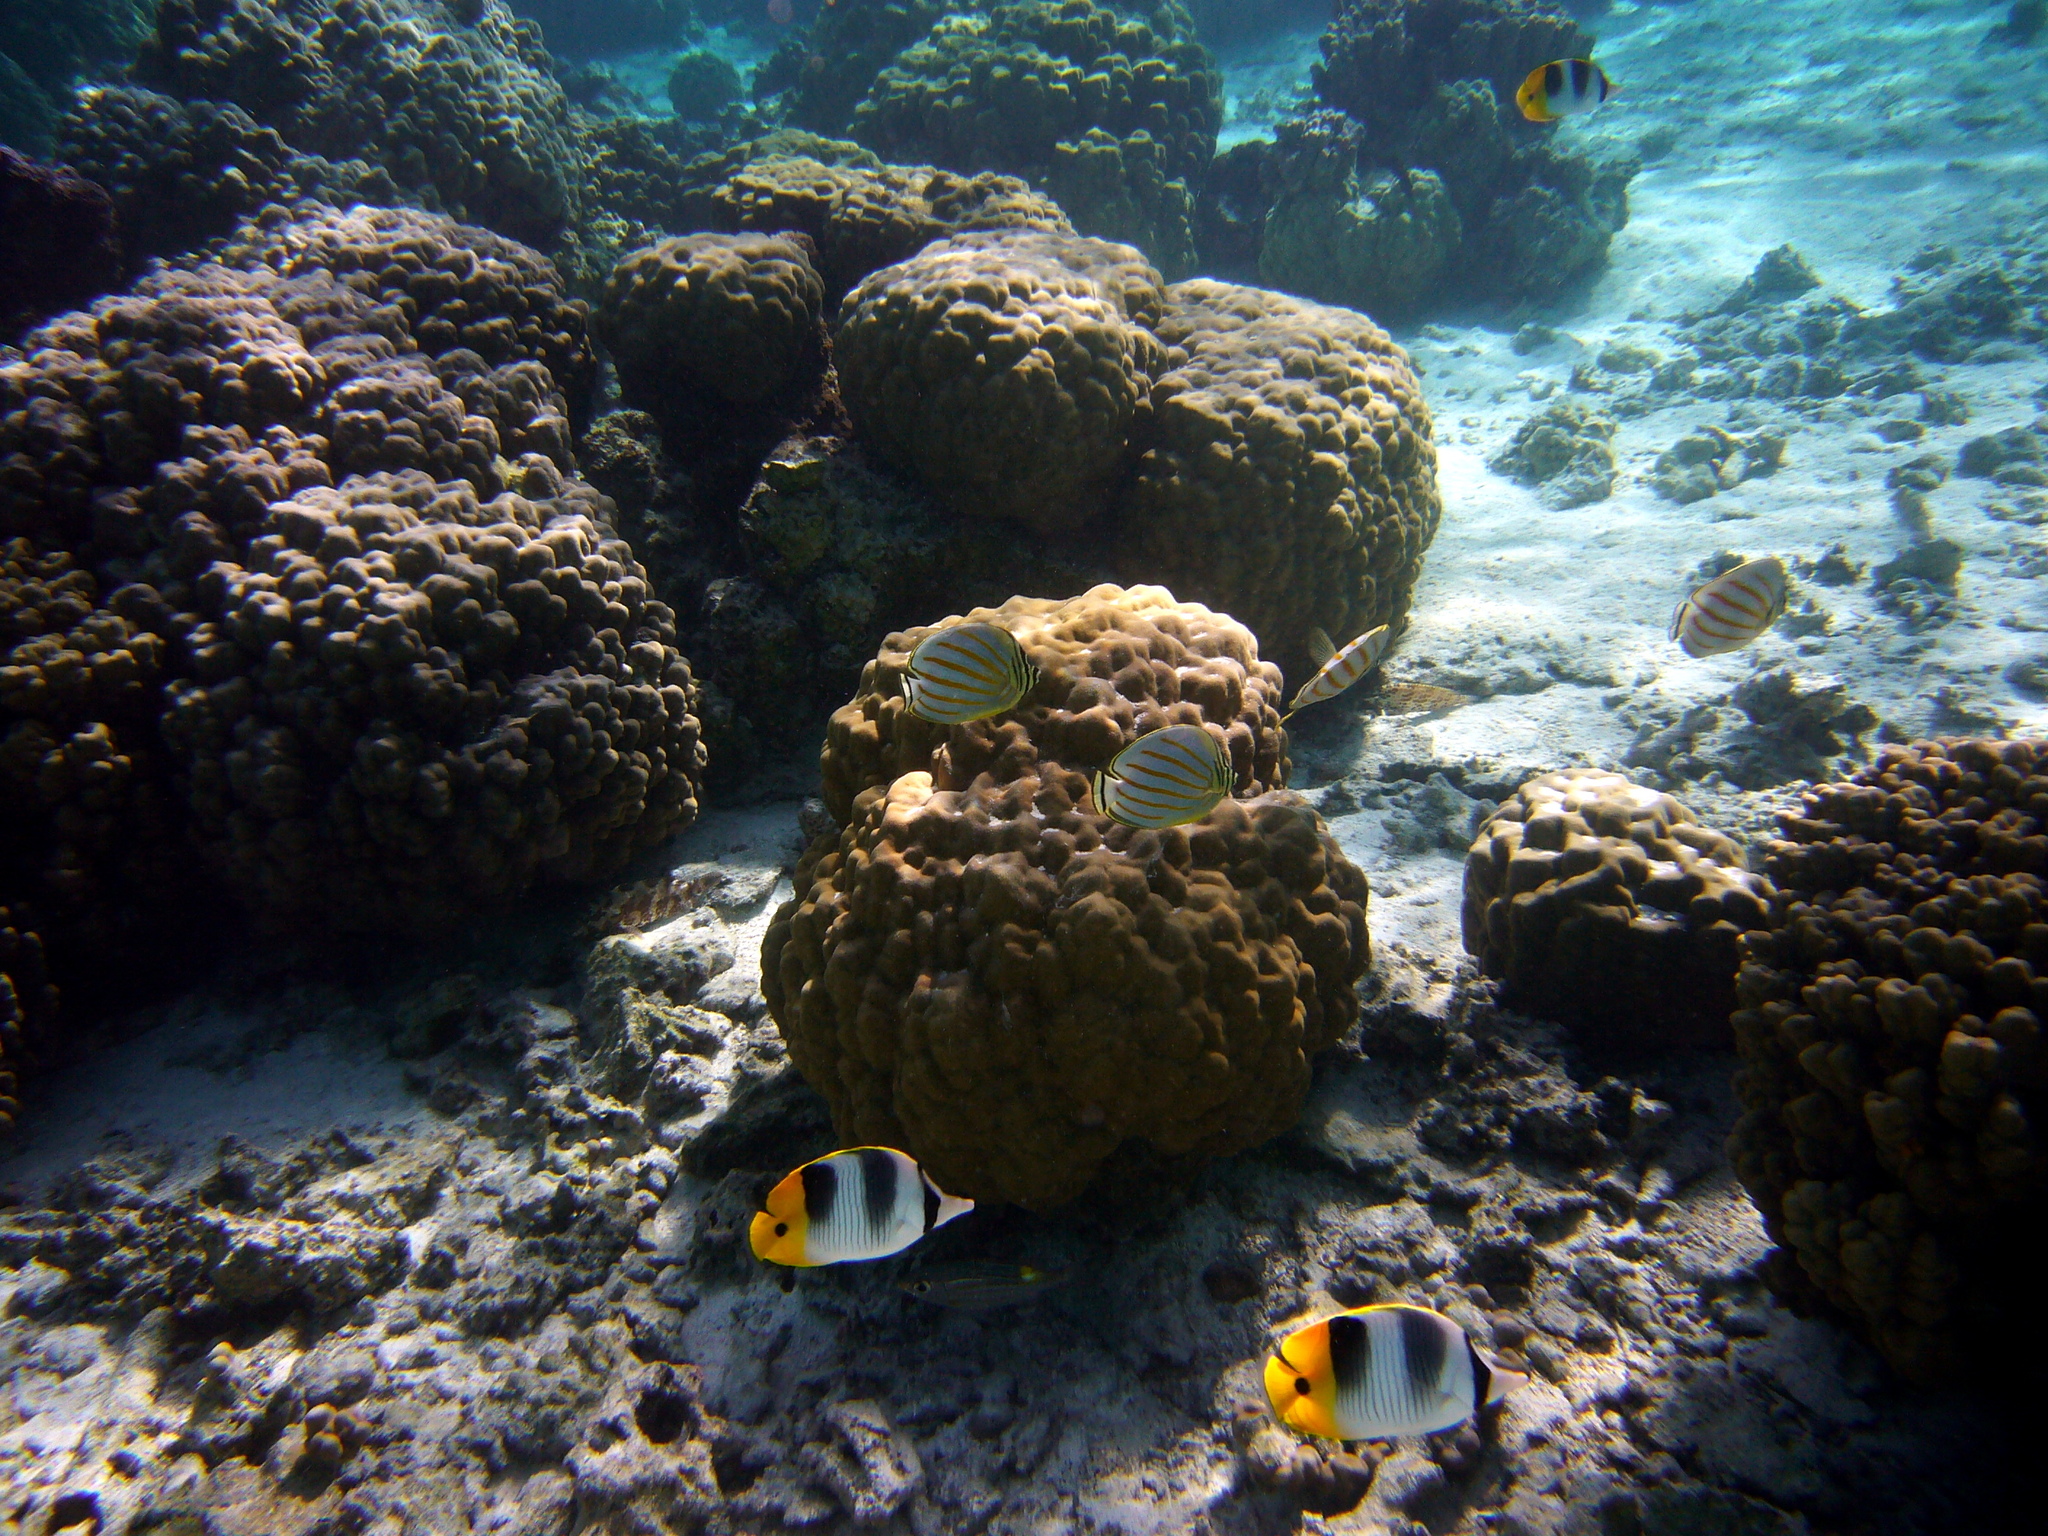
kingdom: Animalia
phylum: Chordata
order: Perciformes
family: Chaetodontidae
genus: Chaetodon
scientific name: Chaetodon ulietensis
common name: Pacific double-saddle butterflyfish
